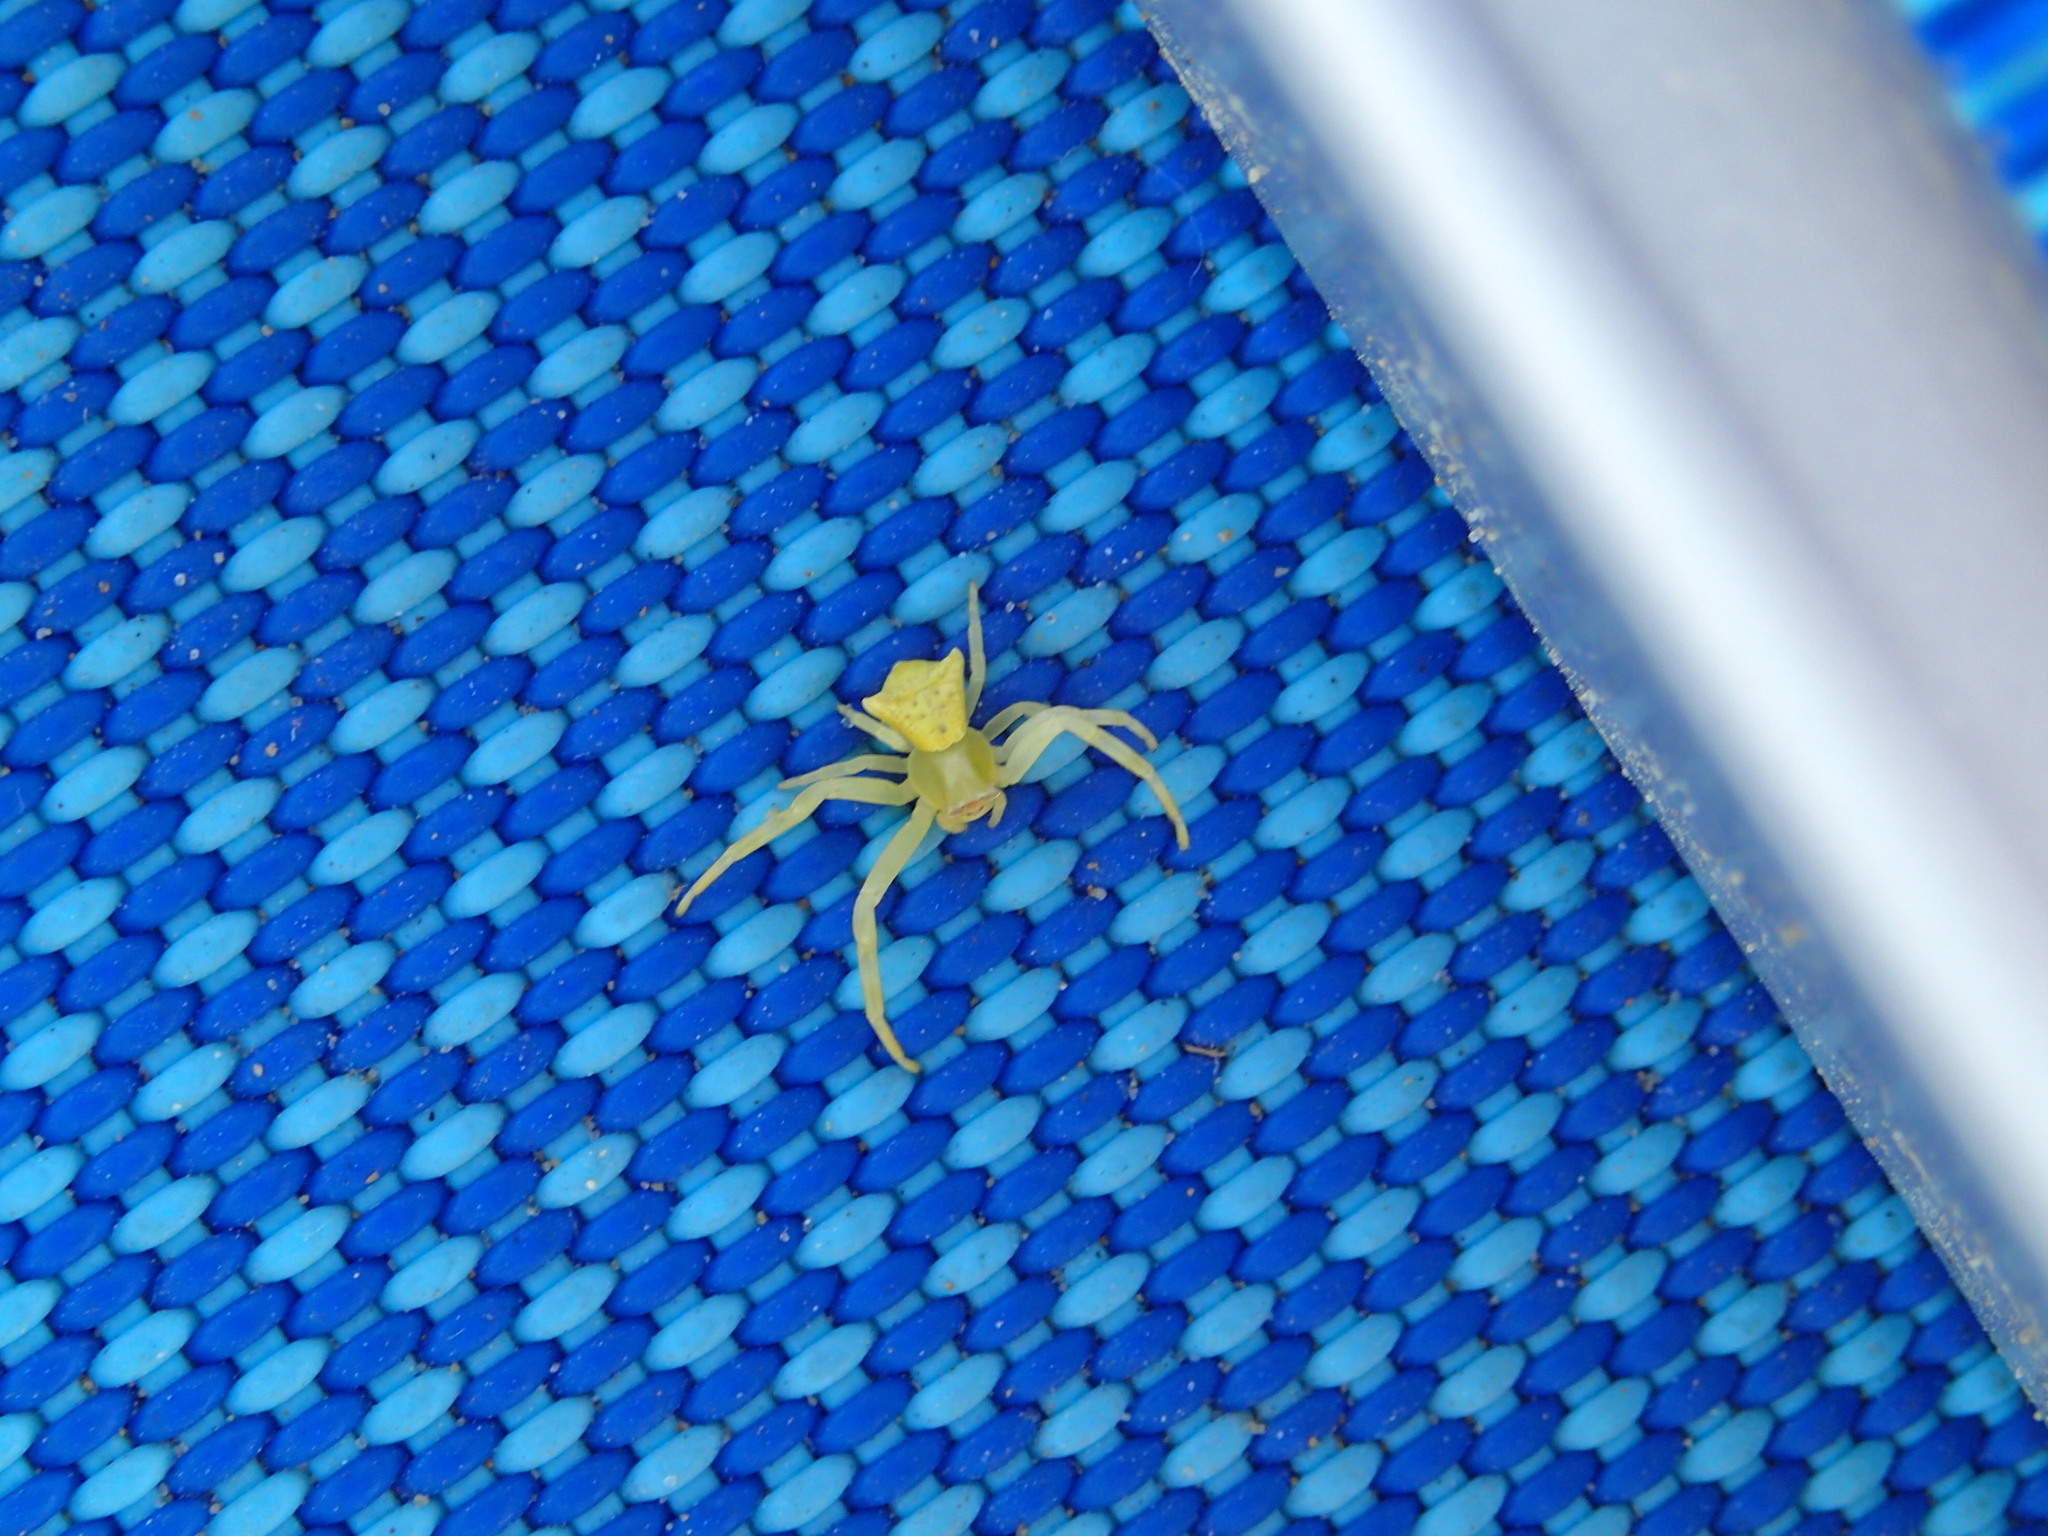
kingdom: Animalia
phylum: Arthropoda
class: Arachnida
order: Araneae
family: Thomisidae
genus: Thomisus
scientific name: Thomisus onustus
